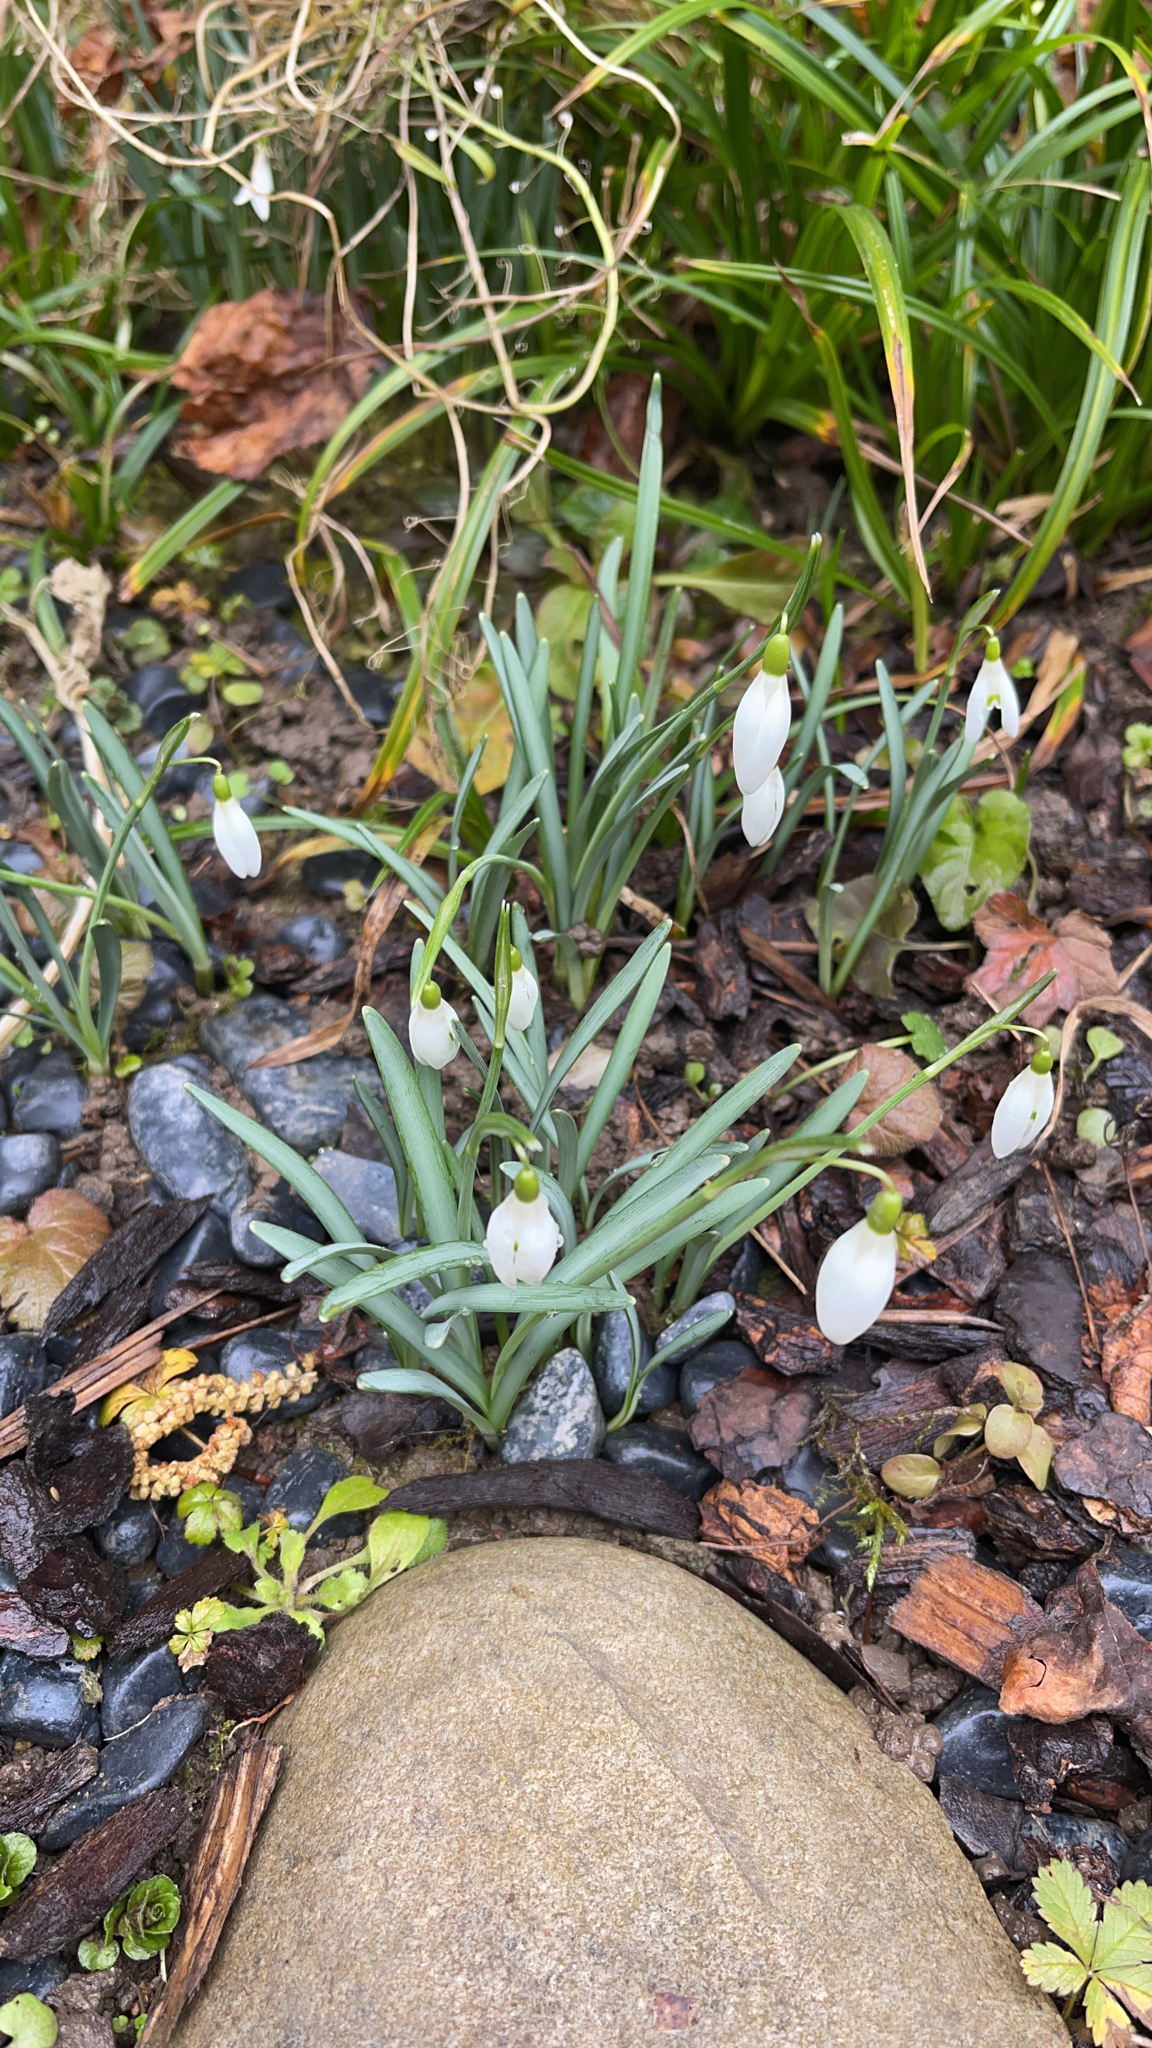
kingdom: Plantae
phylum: Tracheophyta
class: Liliopsida
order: Asparagales
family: Amaryllidaceae
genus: Galanthus
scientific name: Galanthus nivalis
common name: Snowdrop
